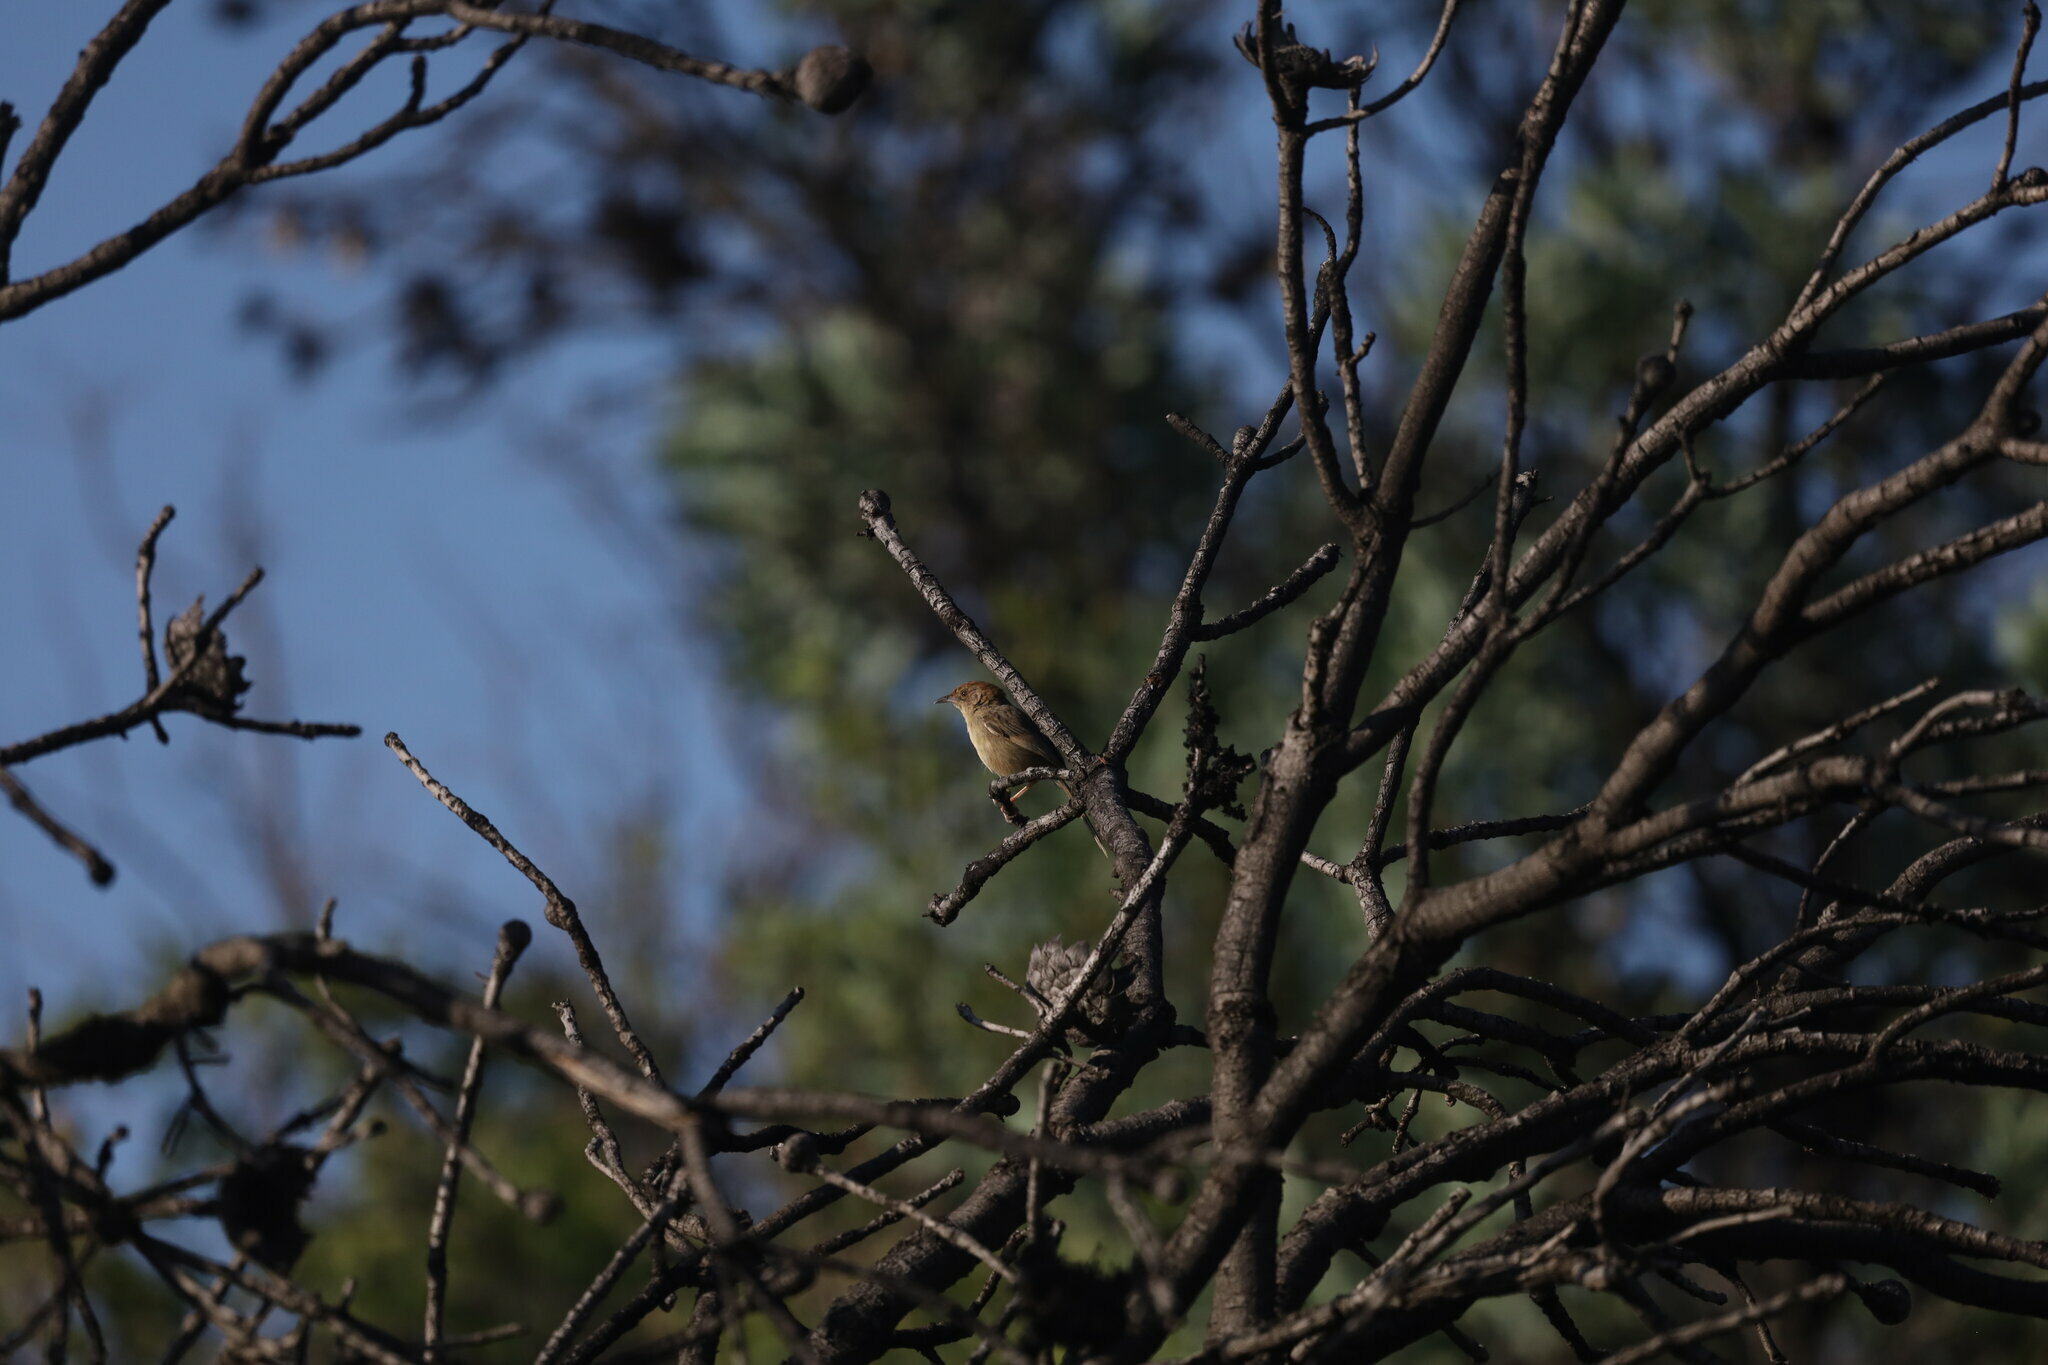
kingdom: Animalia
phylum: Chordata
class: Aves
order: Passeriformes
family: Cisticolidae
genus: Cisticola
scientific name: Cisticola aberrans
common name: Lazy cisticola
